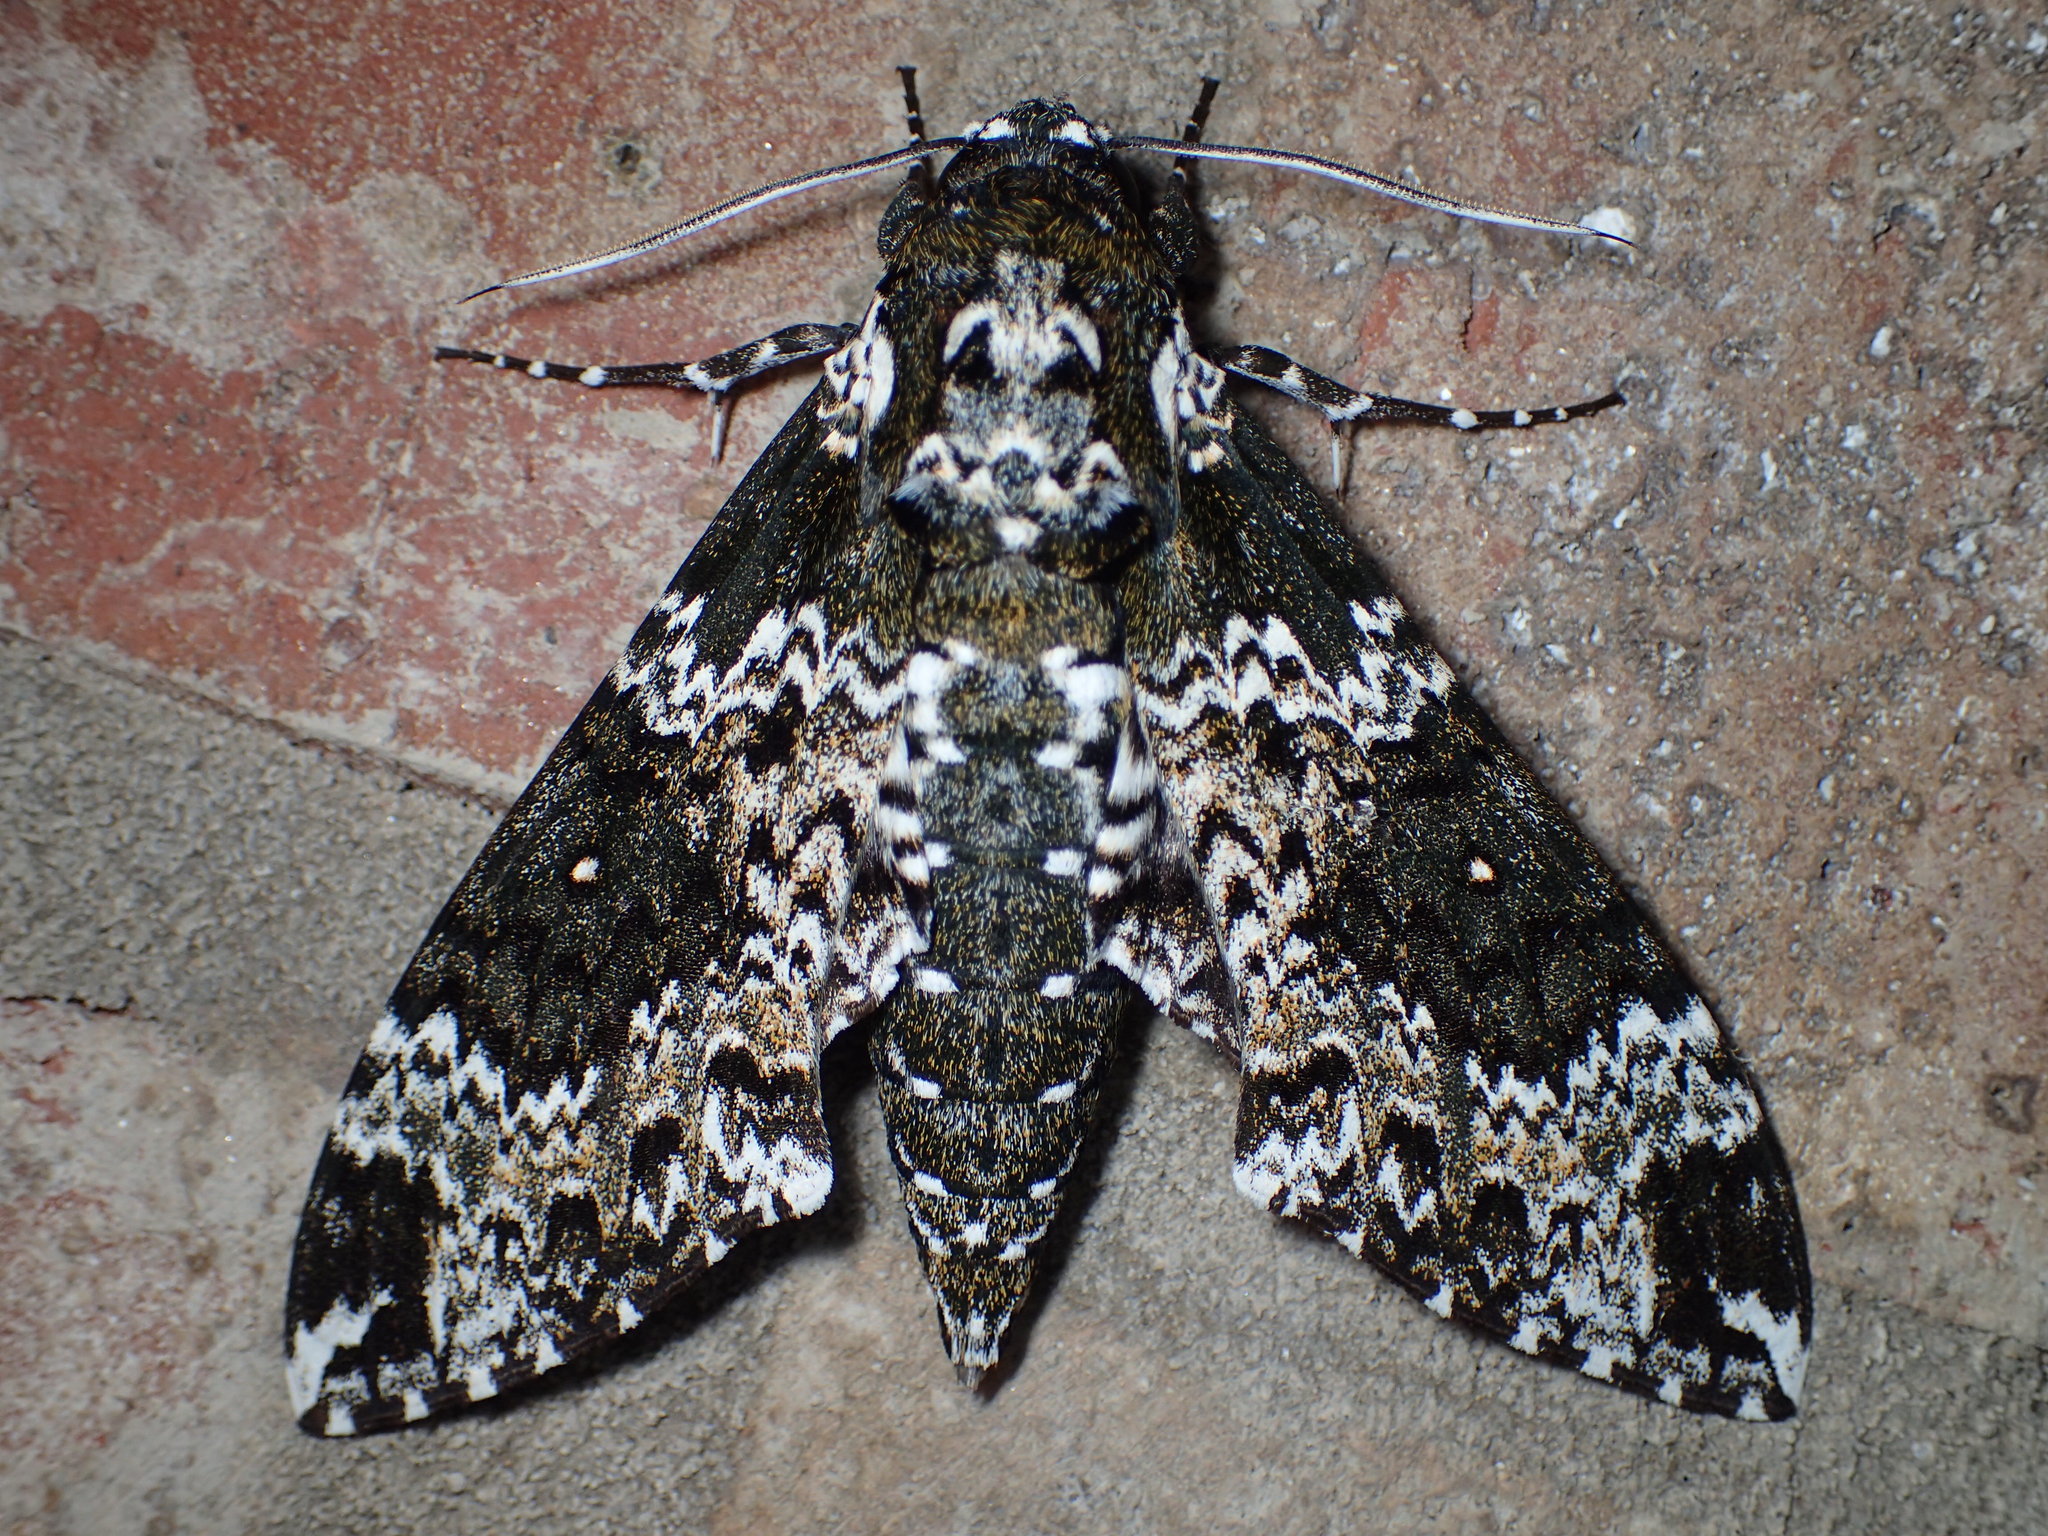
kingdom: Animalia
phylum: Arthropoda
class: Insecta
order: Lepidoptera
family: Sphingidae
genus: Manduca
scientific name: Manduca rustica
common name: Rustic sphinx
